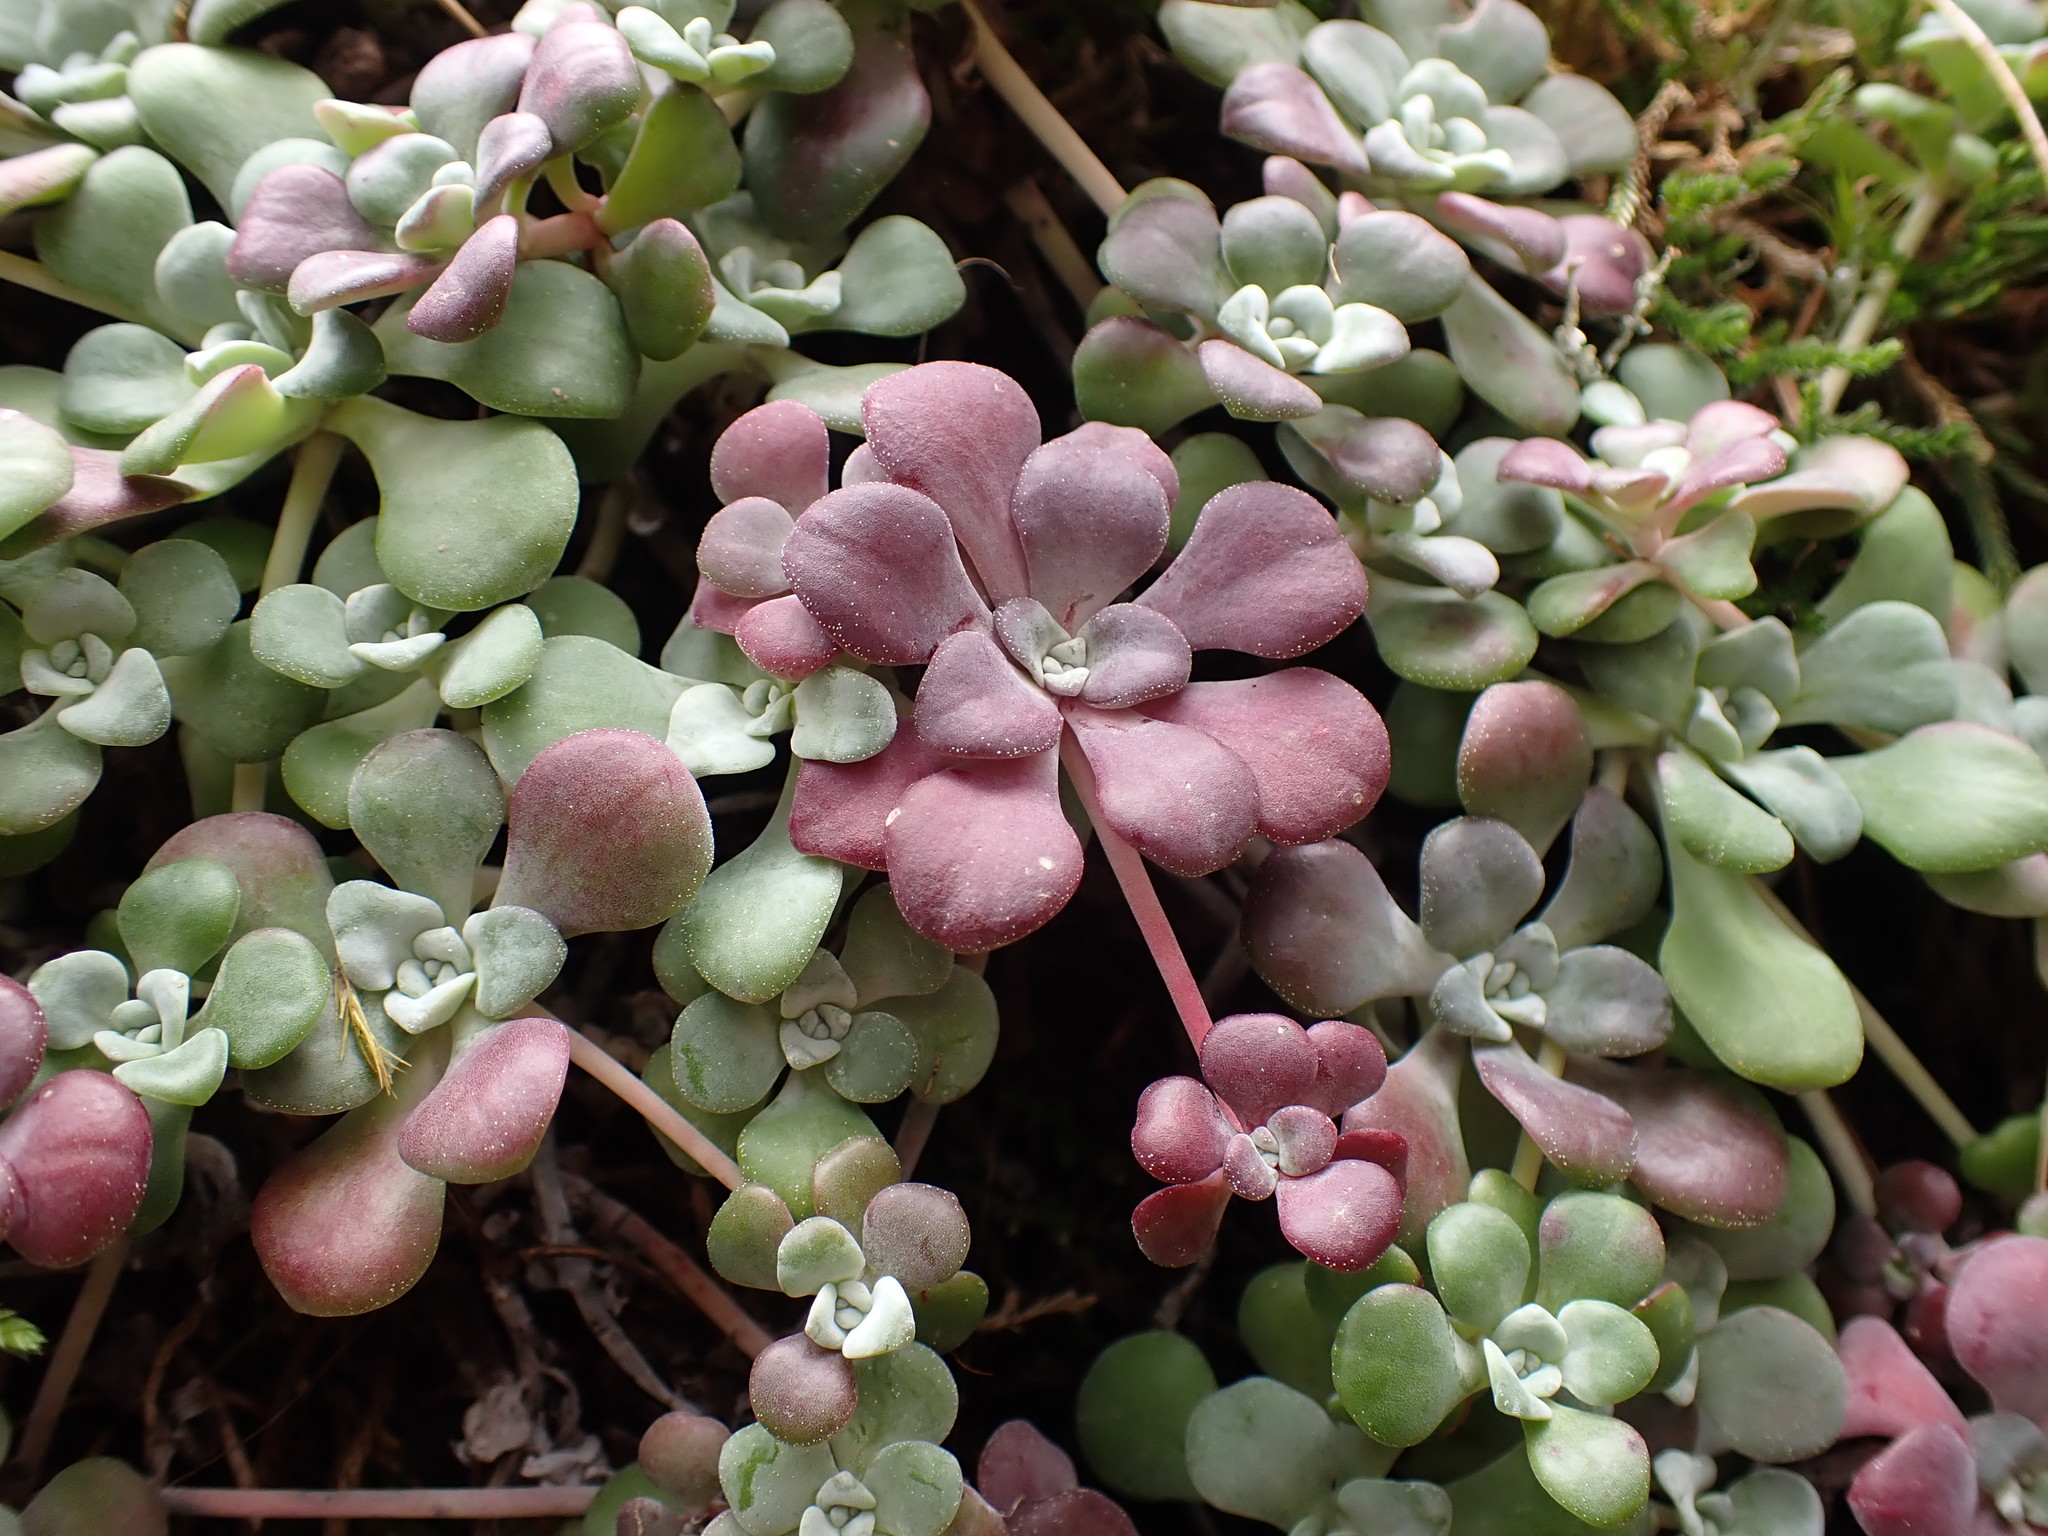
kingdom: Plantae
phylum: Tracheophyta
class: Magnoliopsida
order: Saxifragales
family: Crassulaceae
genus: Sedum
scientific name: Sedum spathulifolium
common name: Colorado stonecrop
